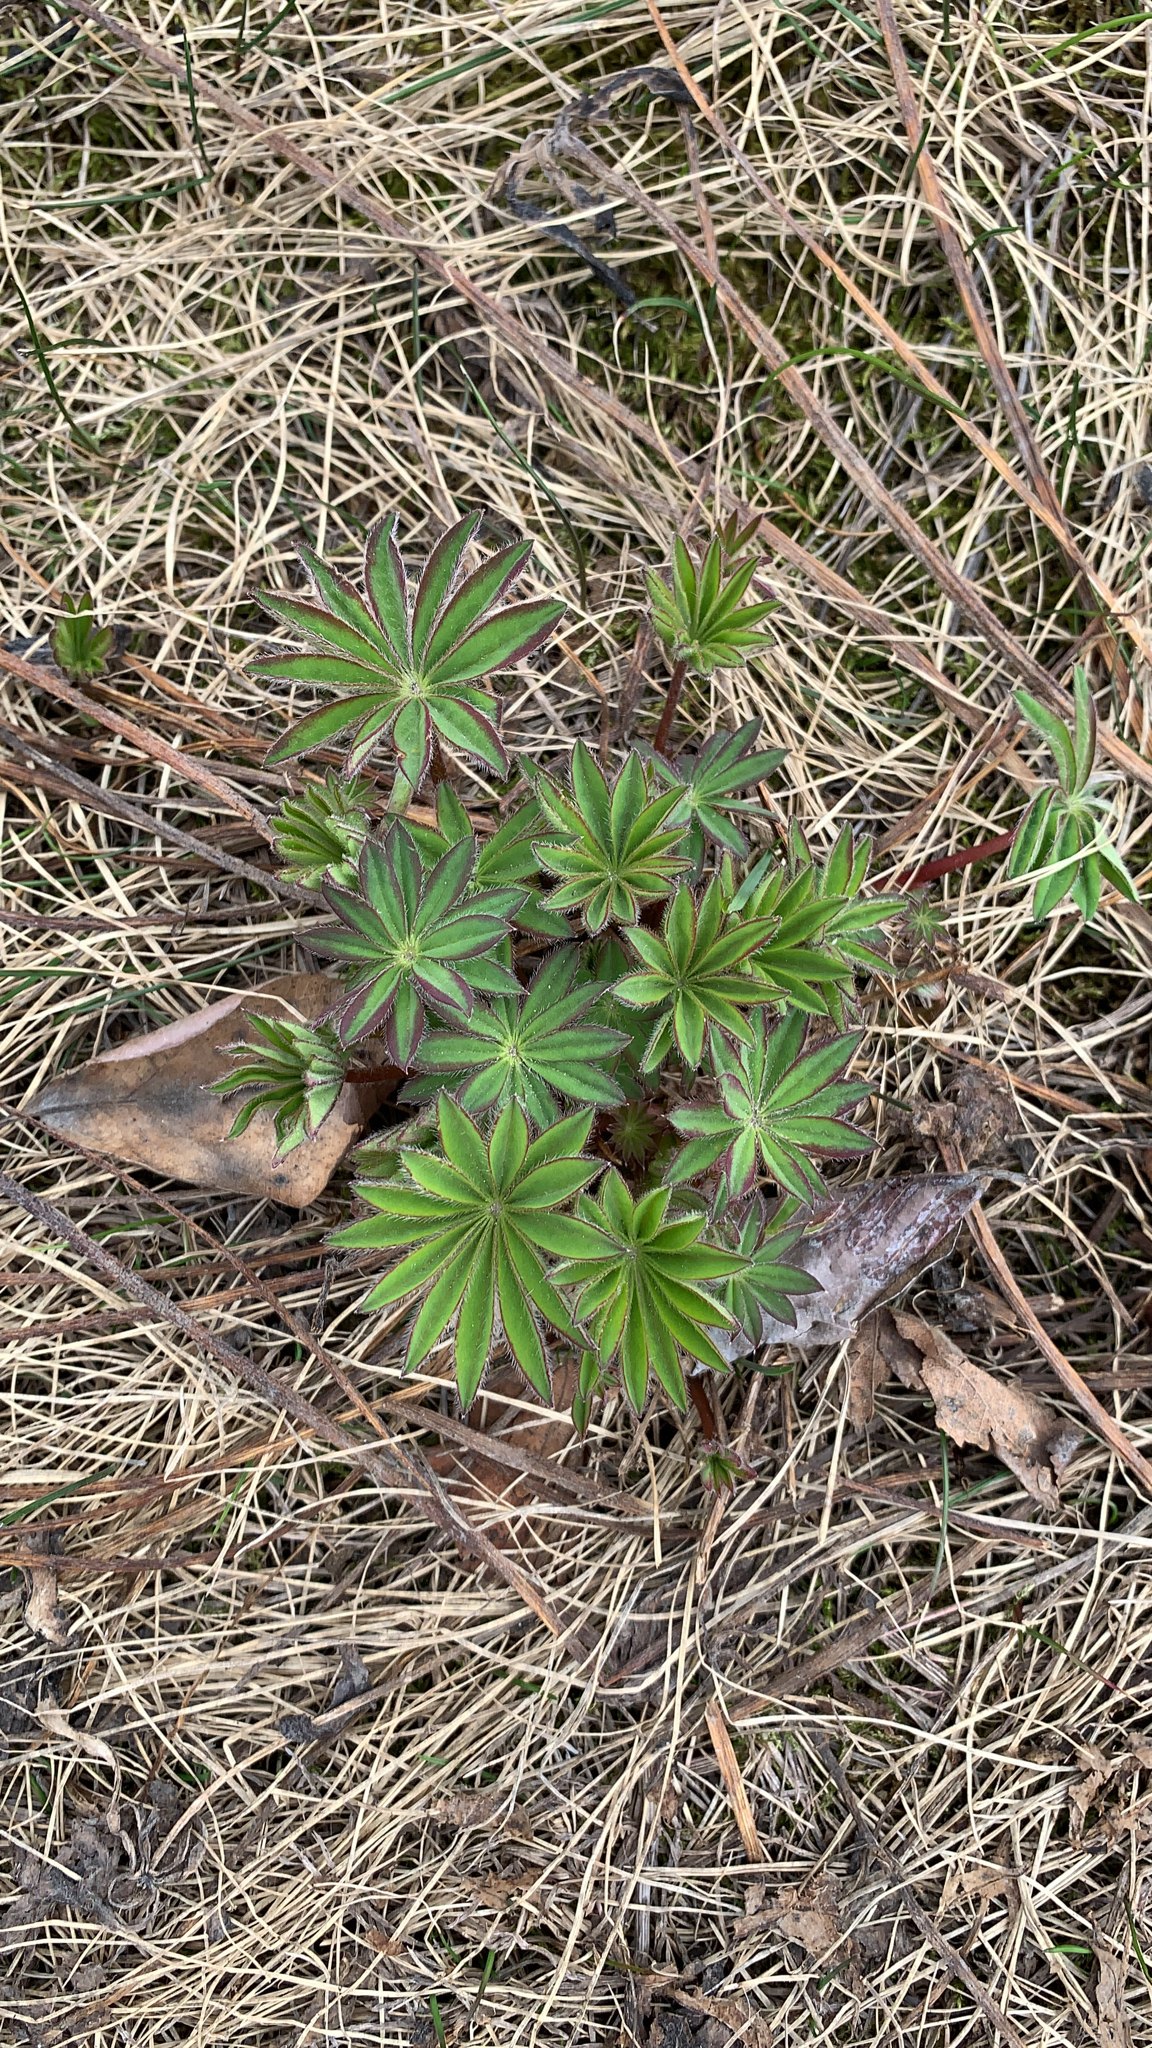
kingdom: Plantae
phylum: Tracheophyta
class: Magnoliopsida
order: Fabales
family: Fabaceae
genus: Lupinus
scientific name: Lupinus arcticus
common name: Arctic lupine
